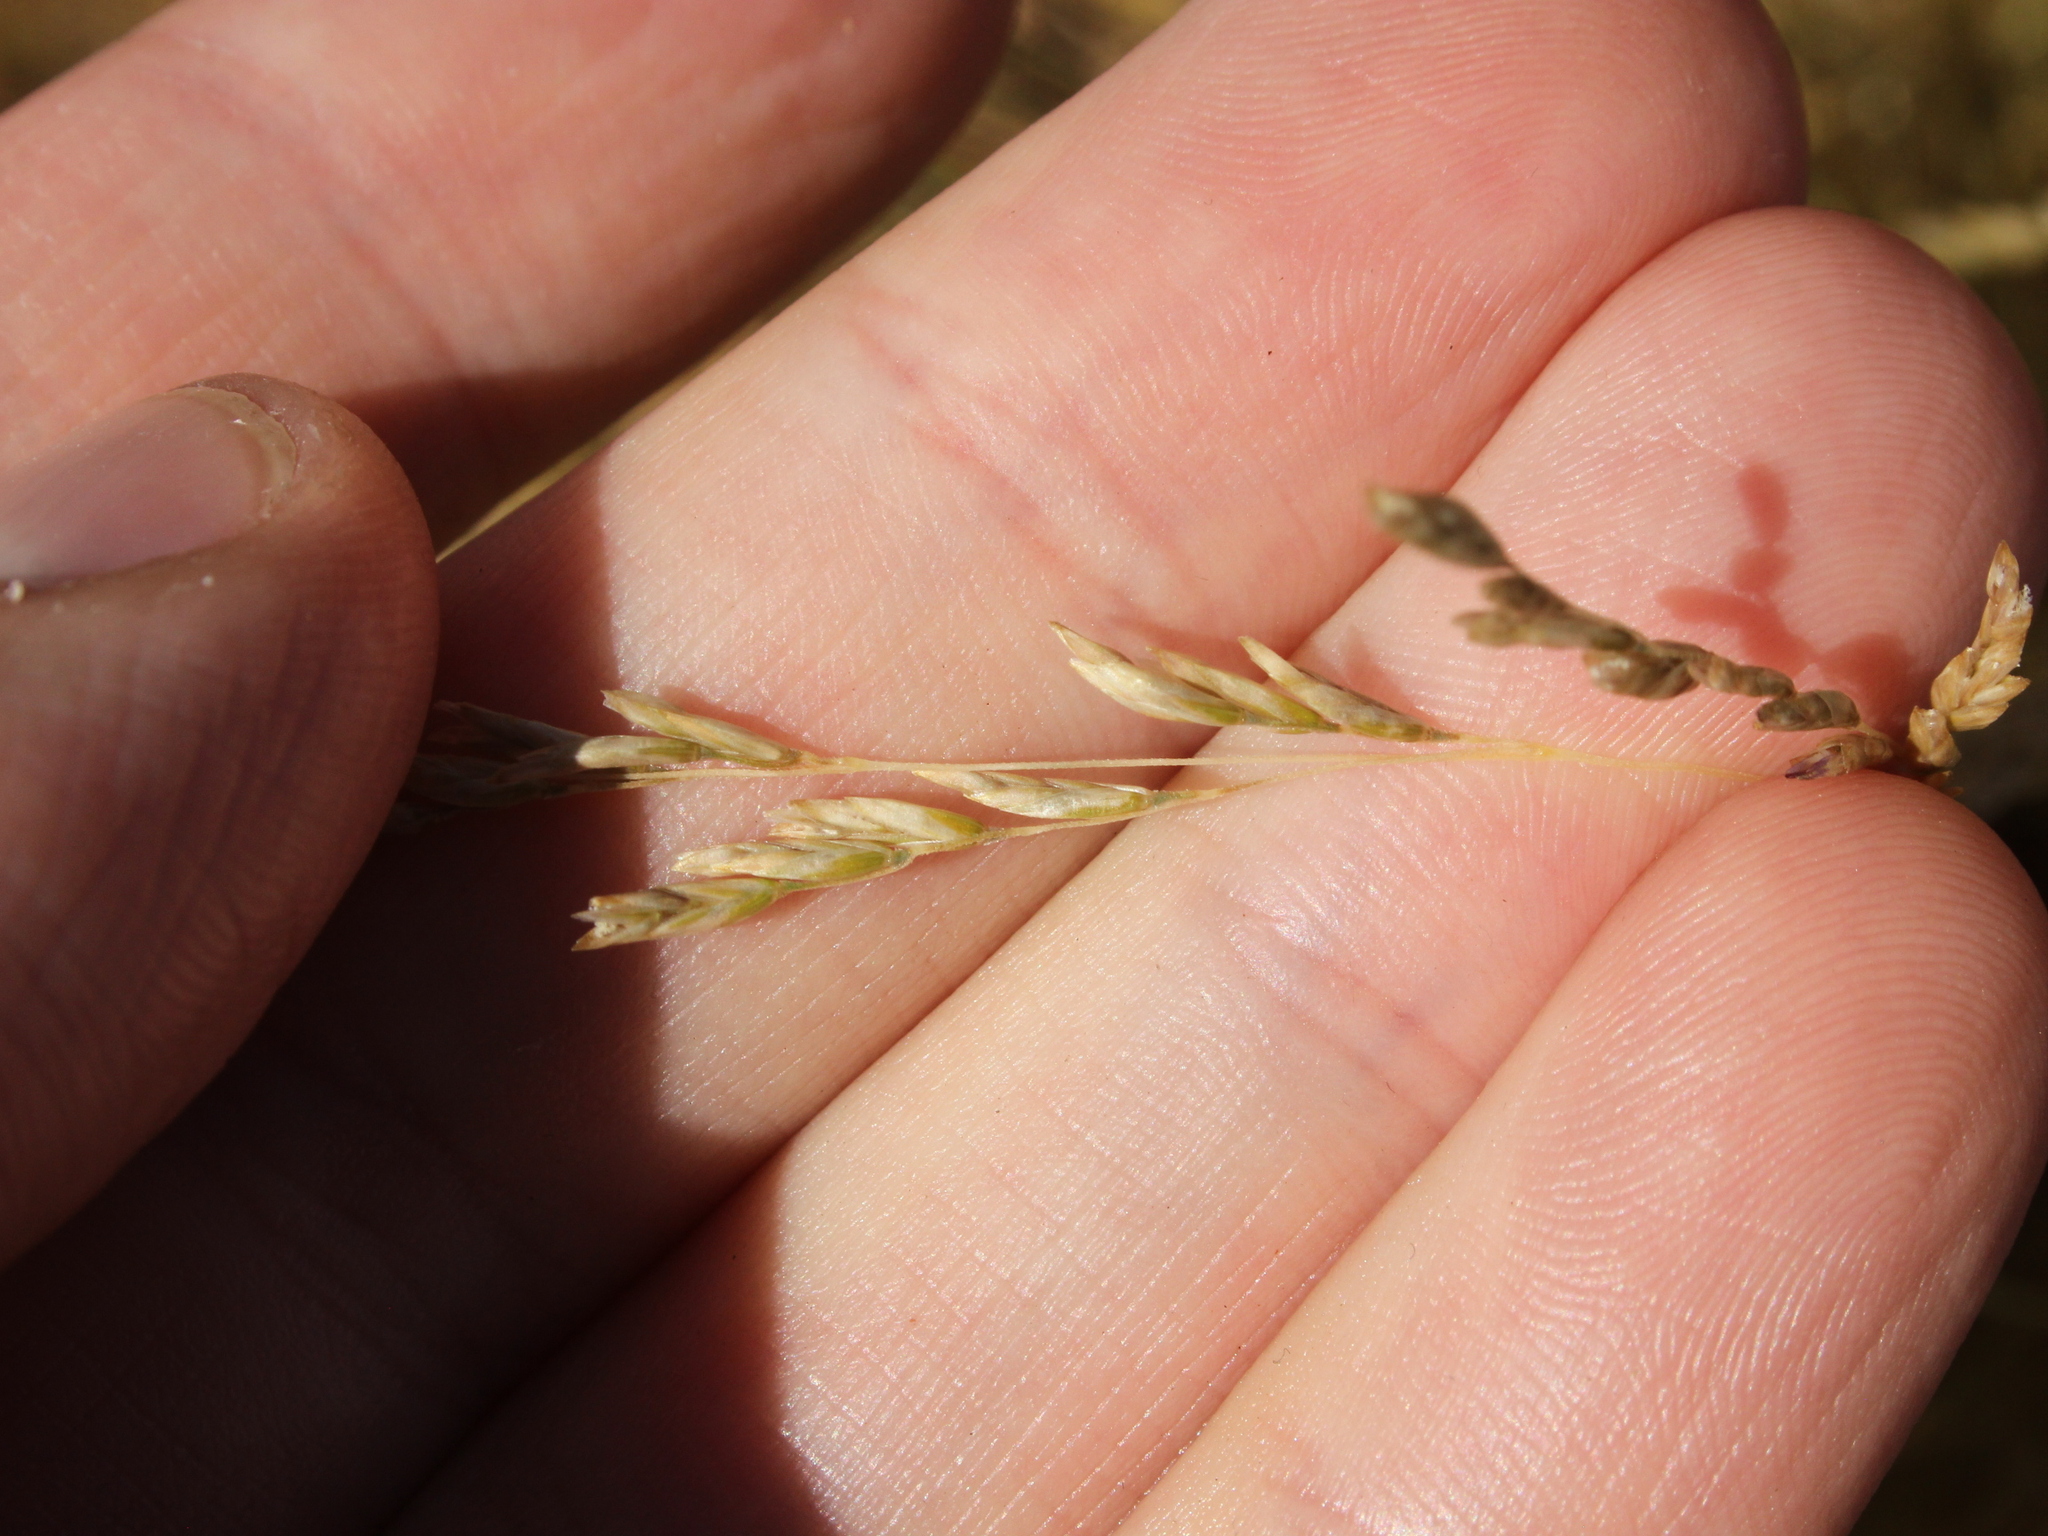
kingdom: Plantae
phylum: Tracheophyta
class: Liliopsida
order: Poales
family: Poaceae
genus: Festuca
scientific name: Festuca novae-zelandiae
